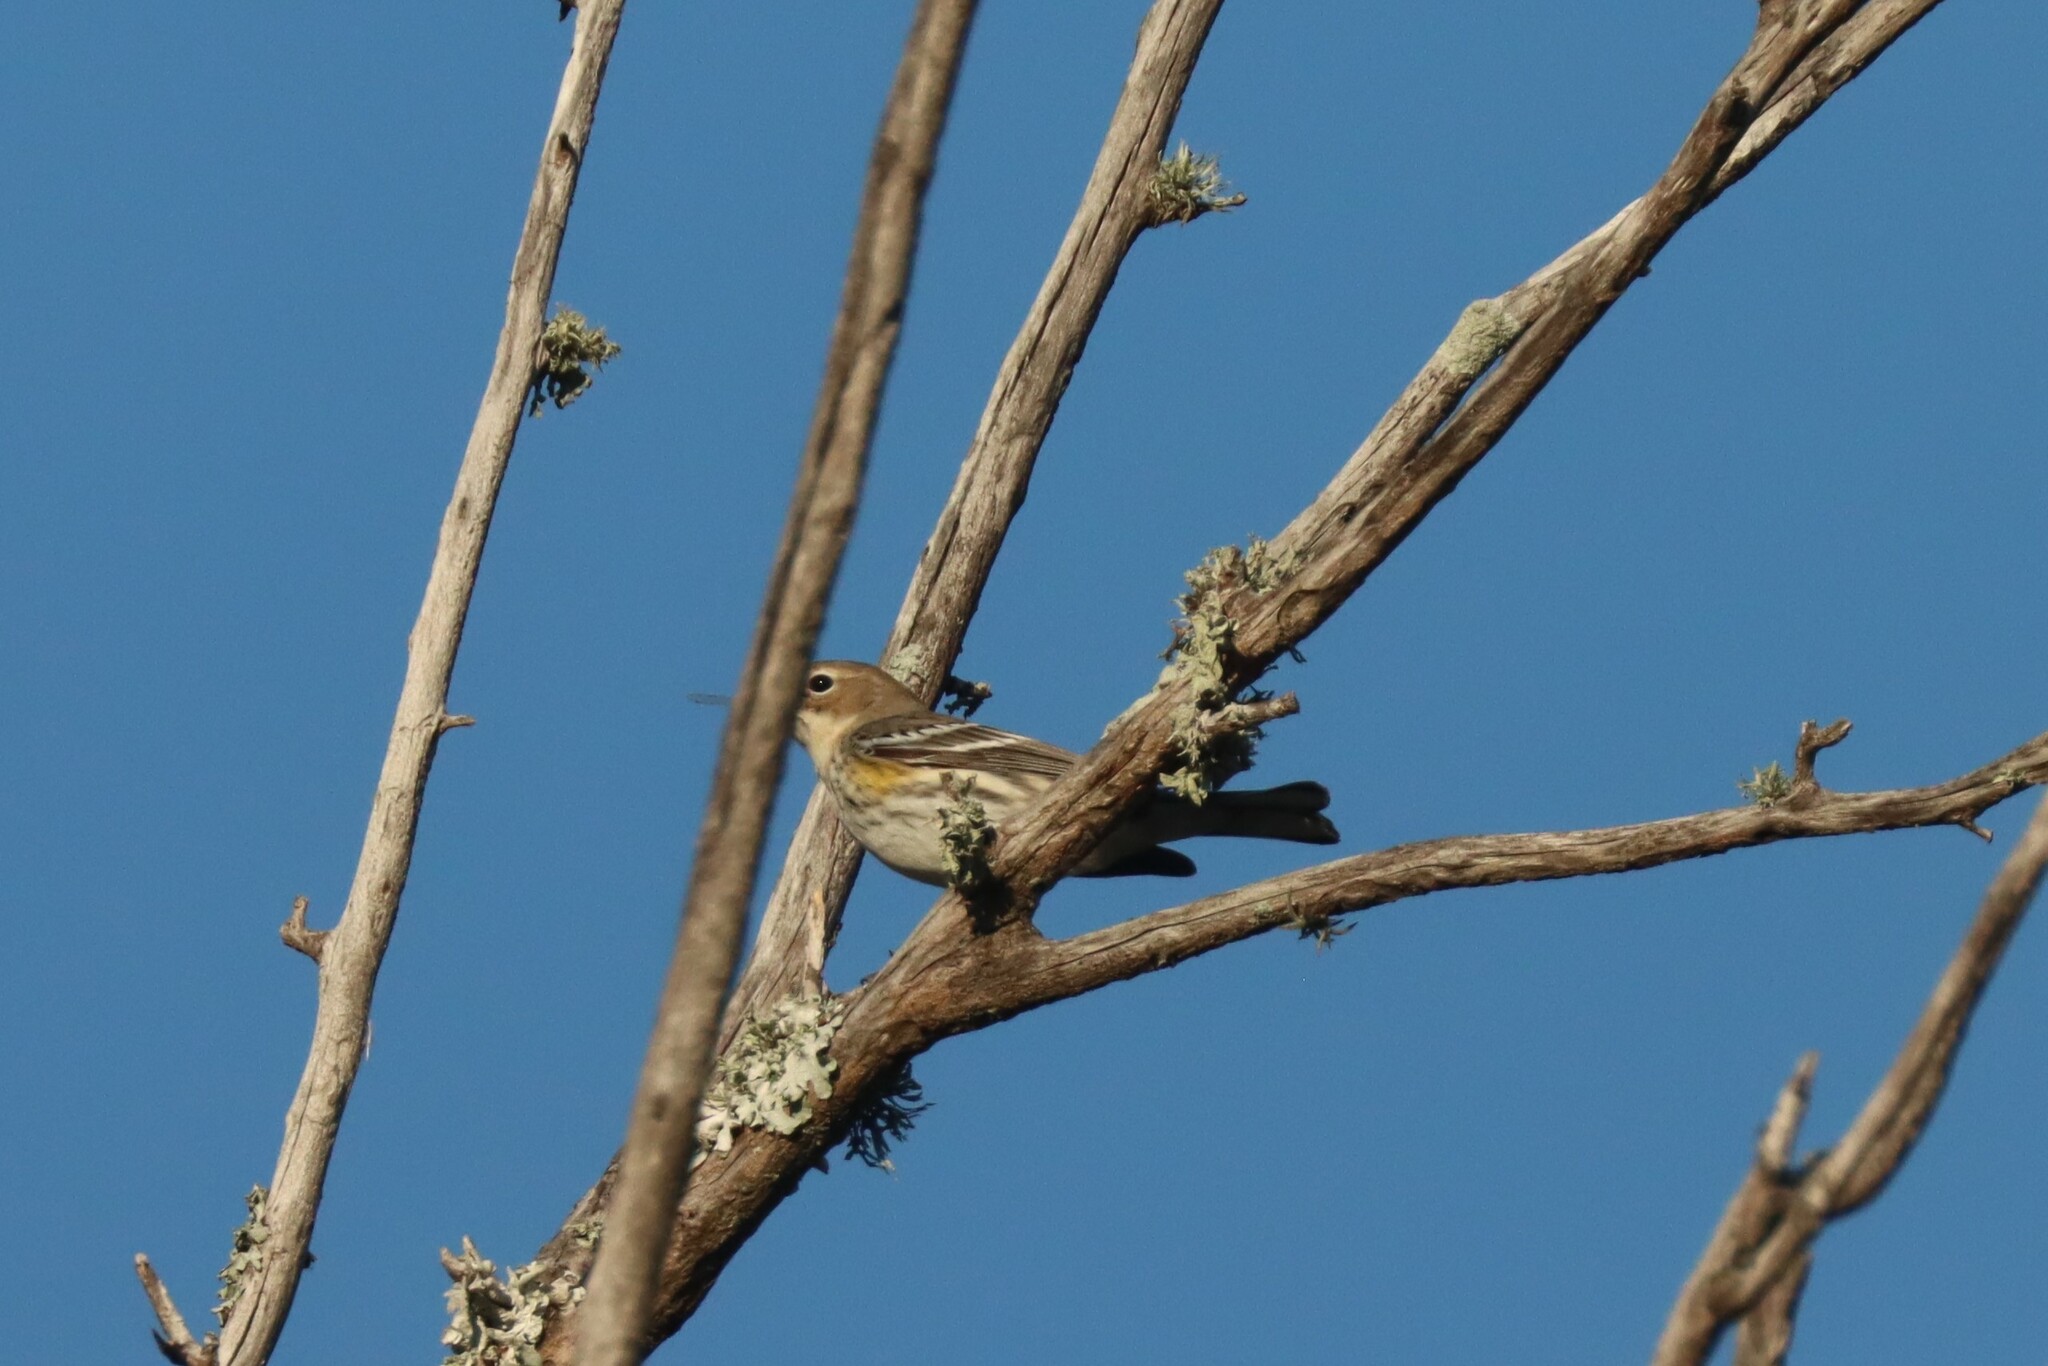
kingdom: Animalia
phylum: Chordata
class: Aves
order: Passeriformes
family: Parulidae
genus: Setophaga
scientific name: Setophaga coronata
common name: Myrtle warbler
